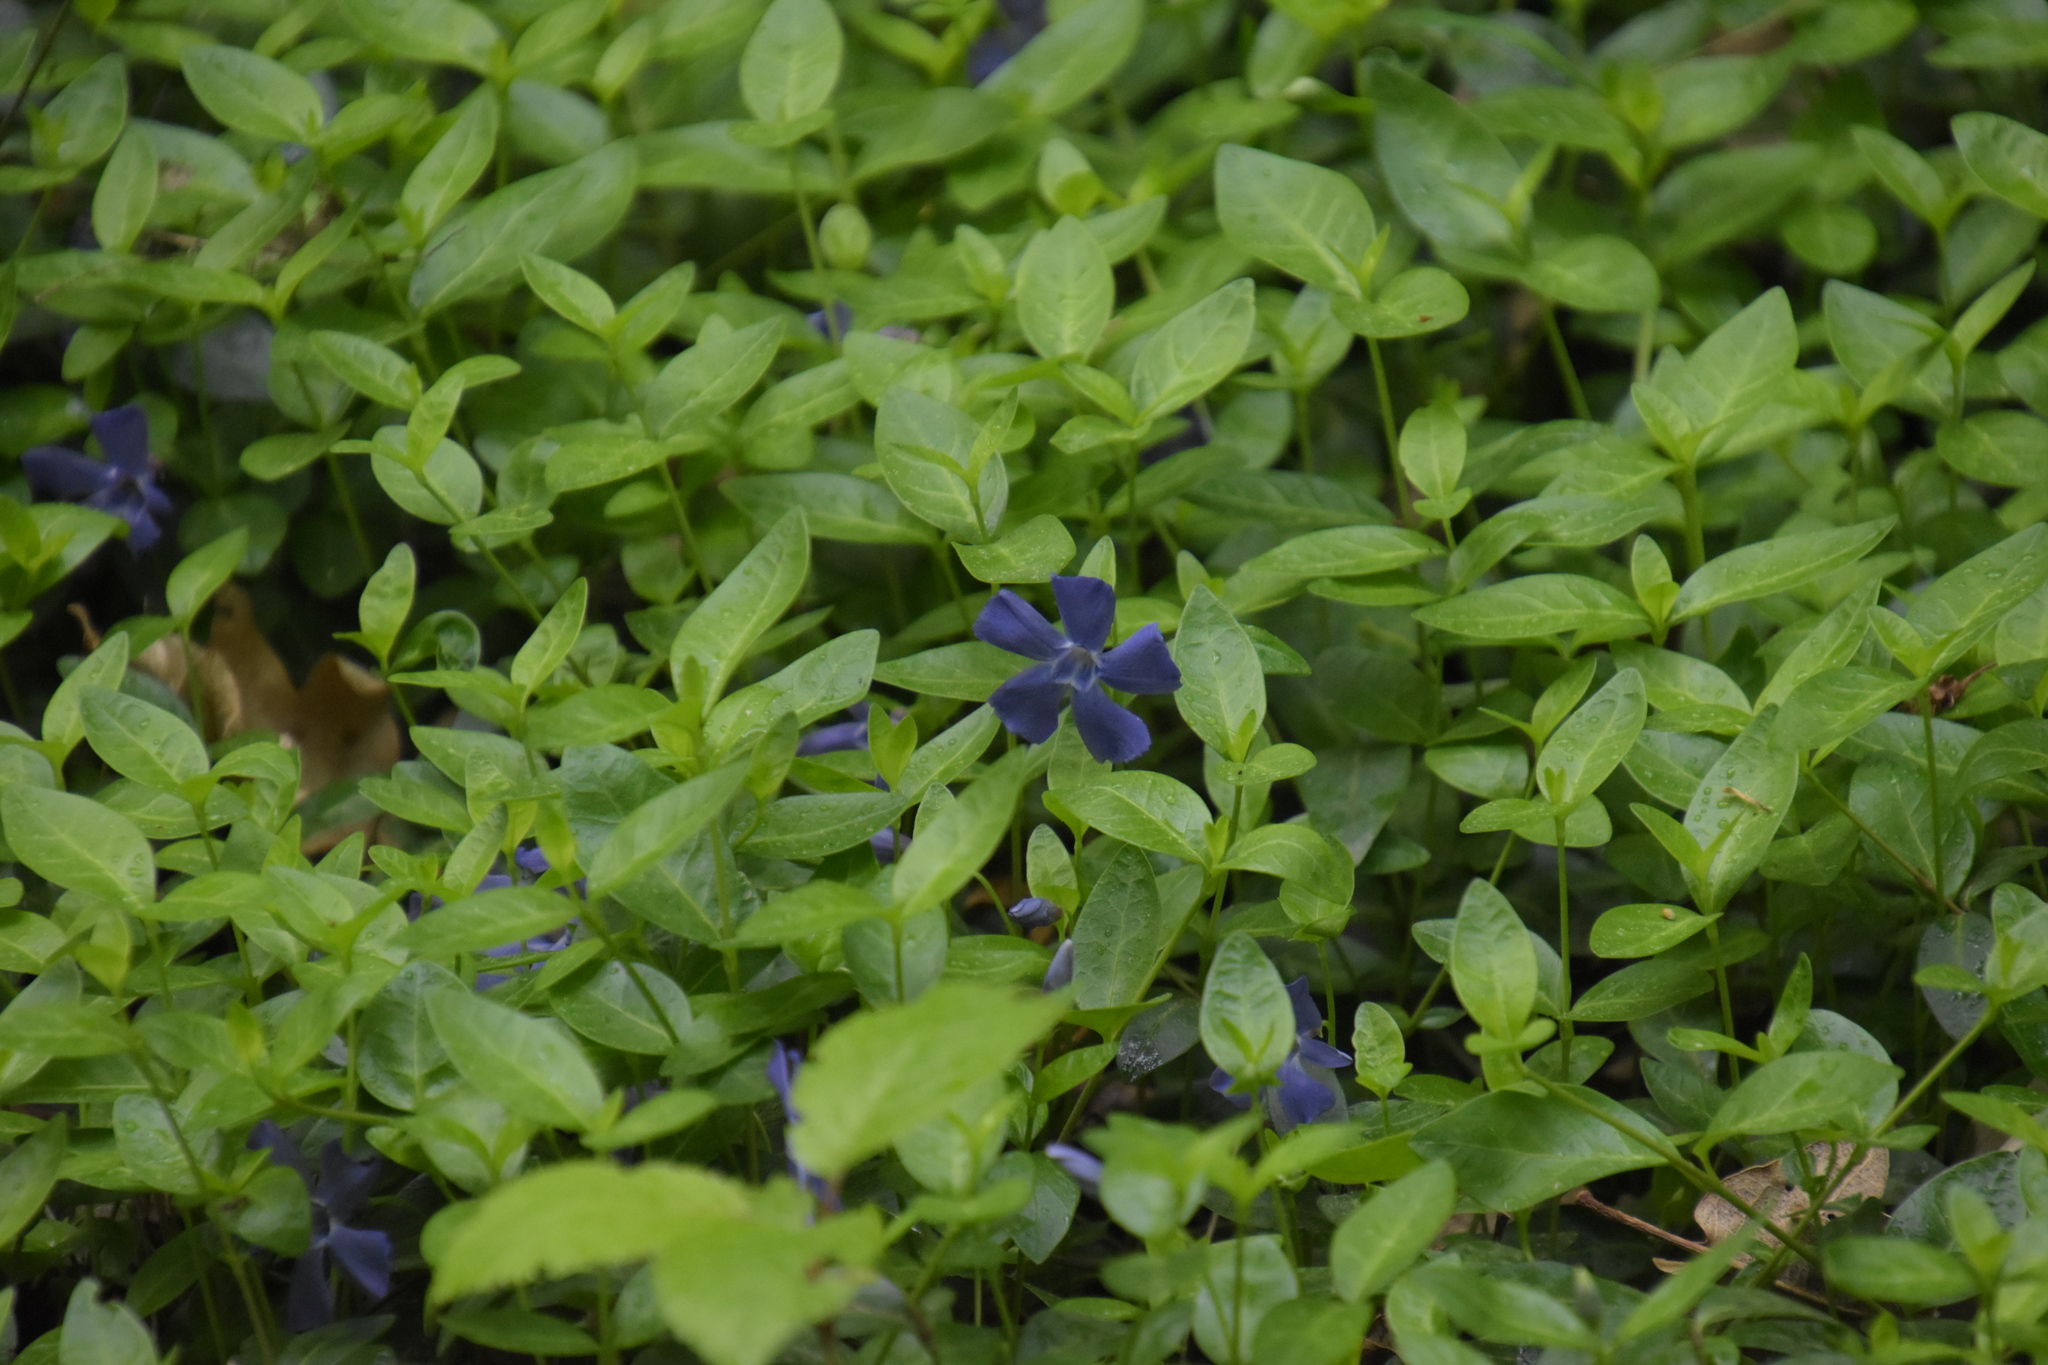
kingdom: Plantae
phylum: Tracheophyta
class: Magnoliopsida
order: Gentianales
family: Apocynaceae
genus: Vinca
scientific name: Vinca minor
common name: Lesser periwinkle
